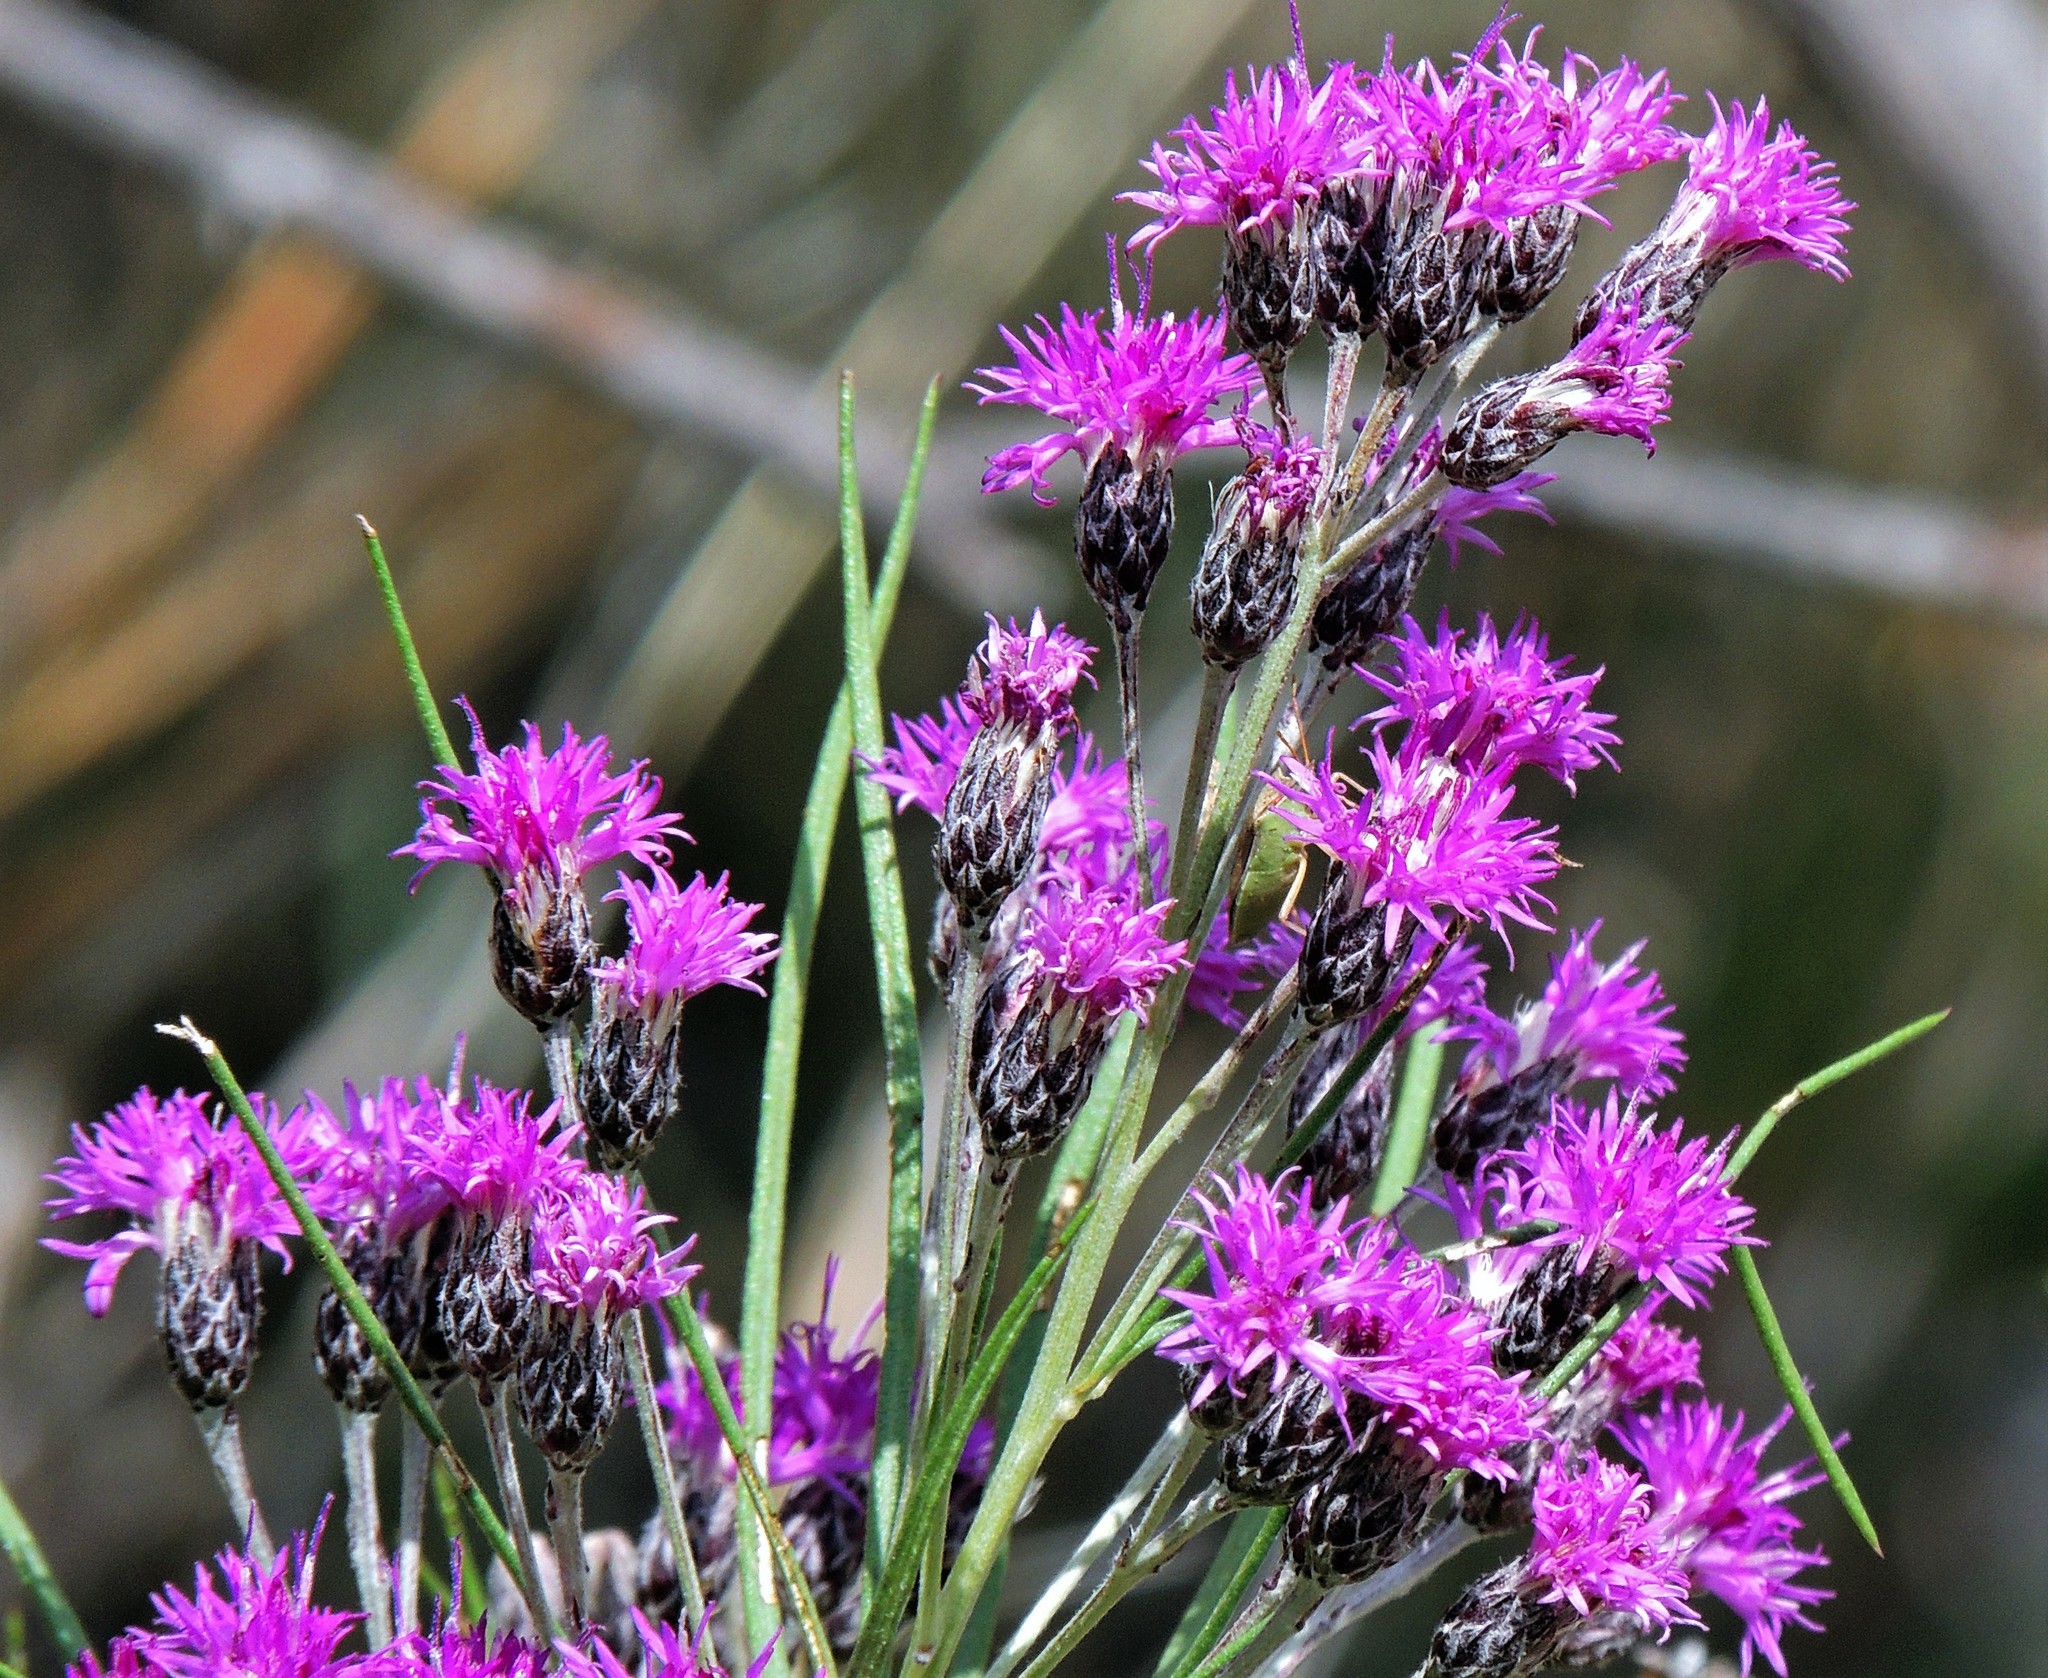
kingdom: Plantae
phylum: Tracheophyta
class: Magnoliopsida
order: Asterales
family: Asteraceae
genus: Vernonanthura
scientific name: Vernonanthura nudiflora
